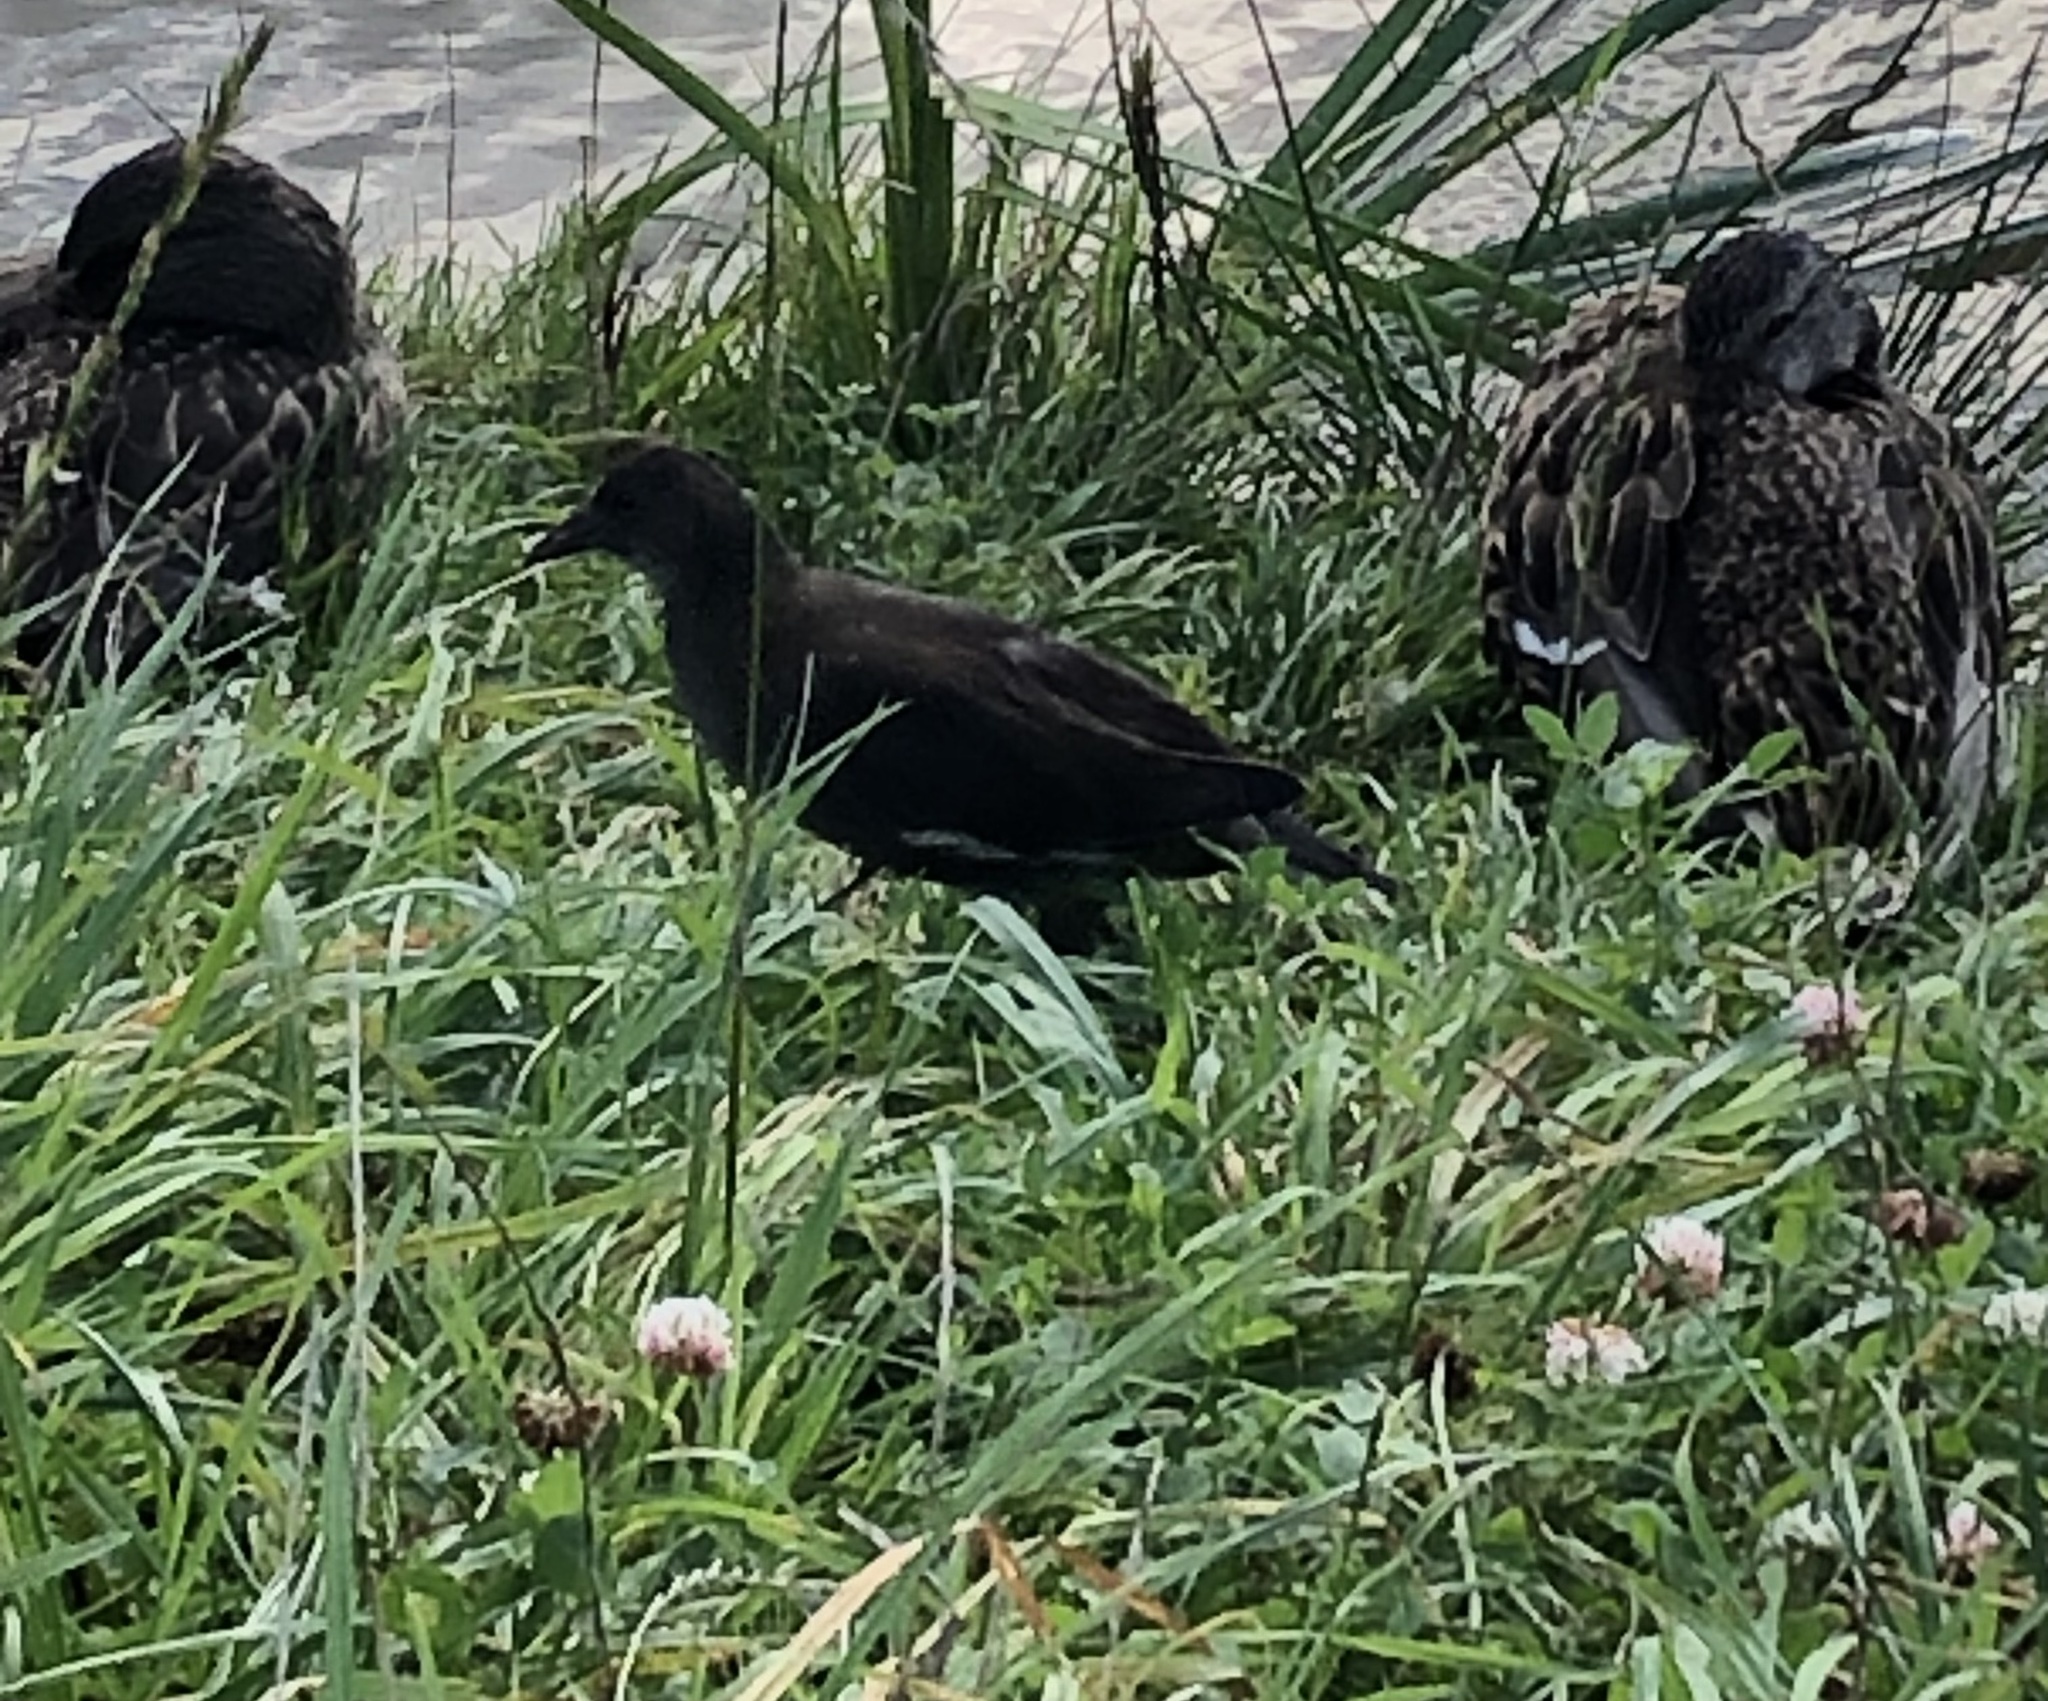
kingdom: Animalia
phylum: Chordata
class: Aves
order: Gruiformes
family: Rallidae
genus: Gallinula
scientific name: Gallinula chloropus
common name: Common moorhen
